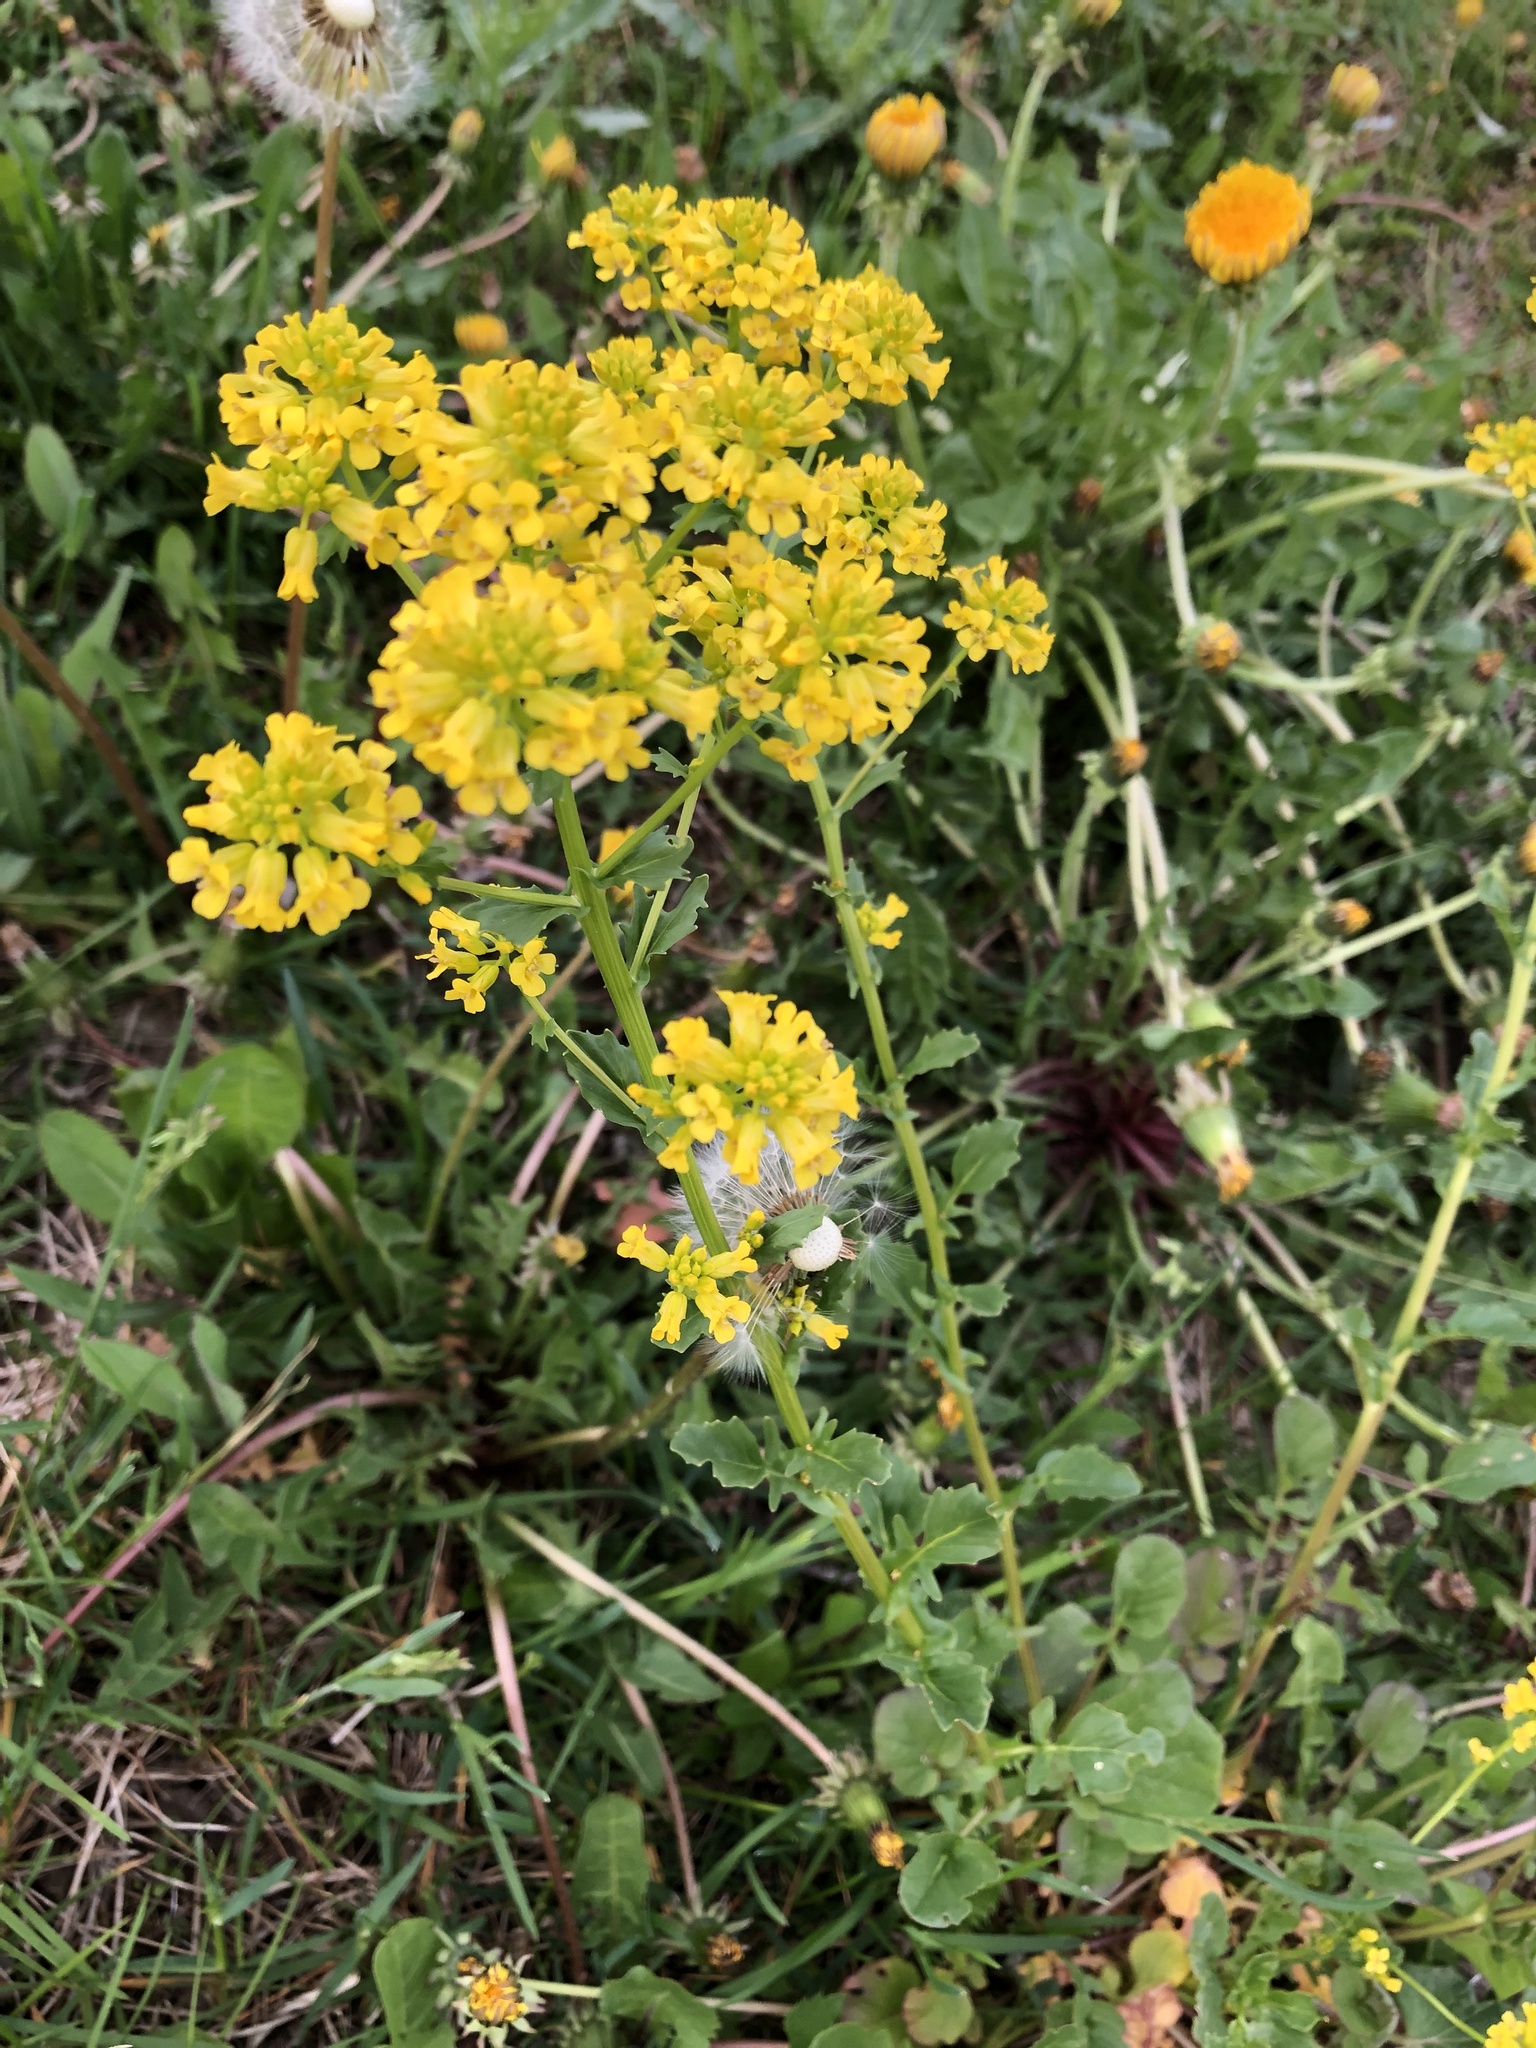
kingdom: Plantae
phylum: Tracheophyta
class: Magnoliopsida
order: Brassicales
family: Brassicaceae
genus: Barbarea
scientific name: Barbarea vulgaris
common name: Cressy-greens
